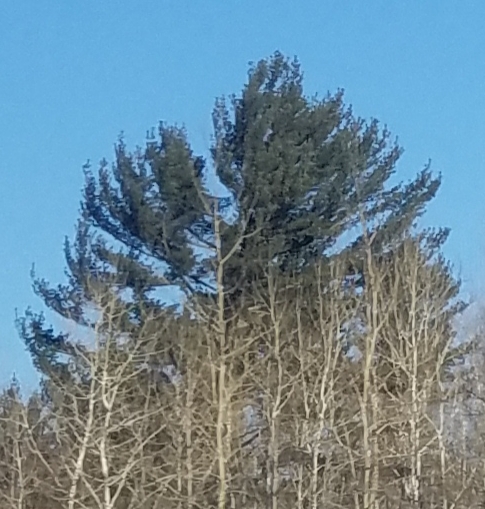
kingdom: Plantae
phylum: Tracheophyta
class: Pinopsida
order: Pinales
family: Pinaceae
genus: Pinus
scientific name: Pinus strobus
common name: Weymouth pine
